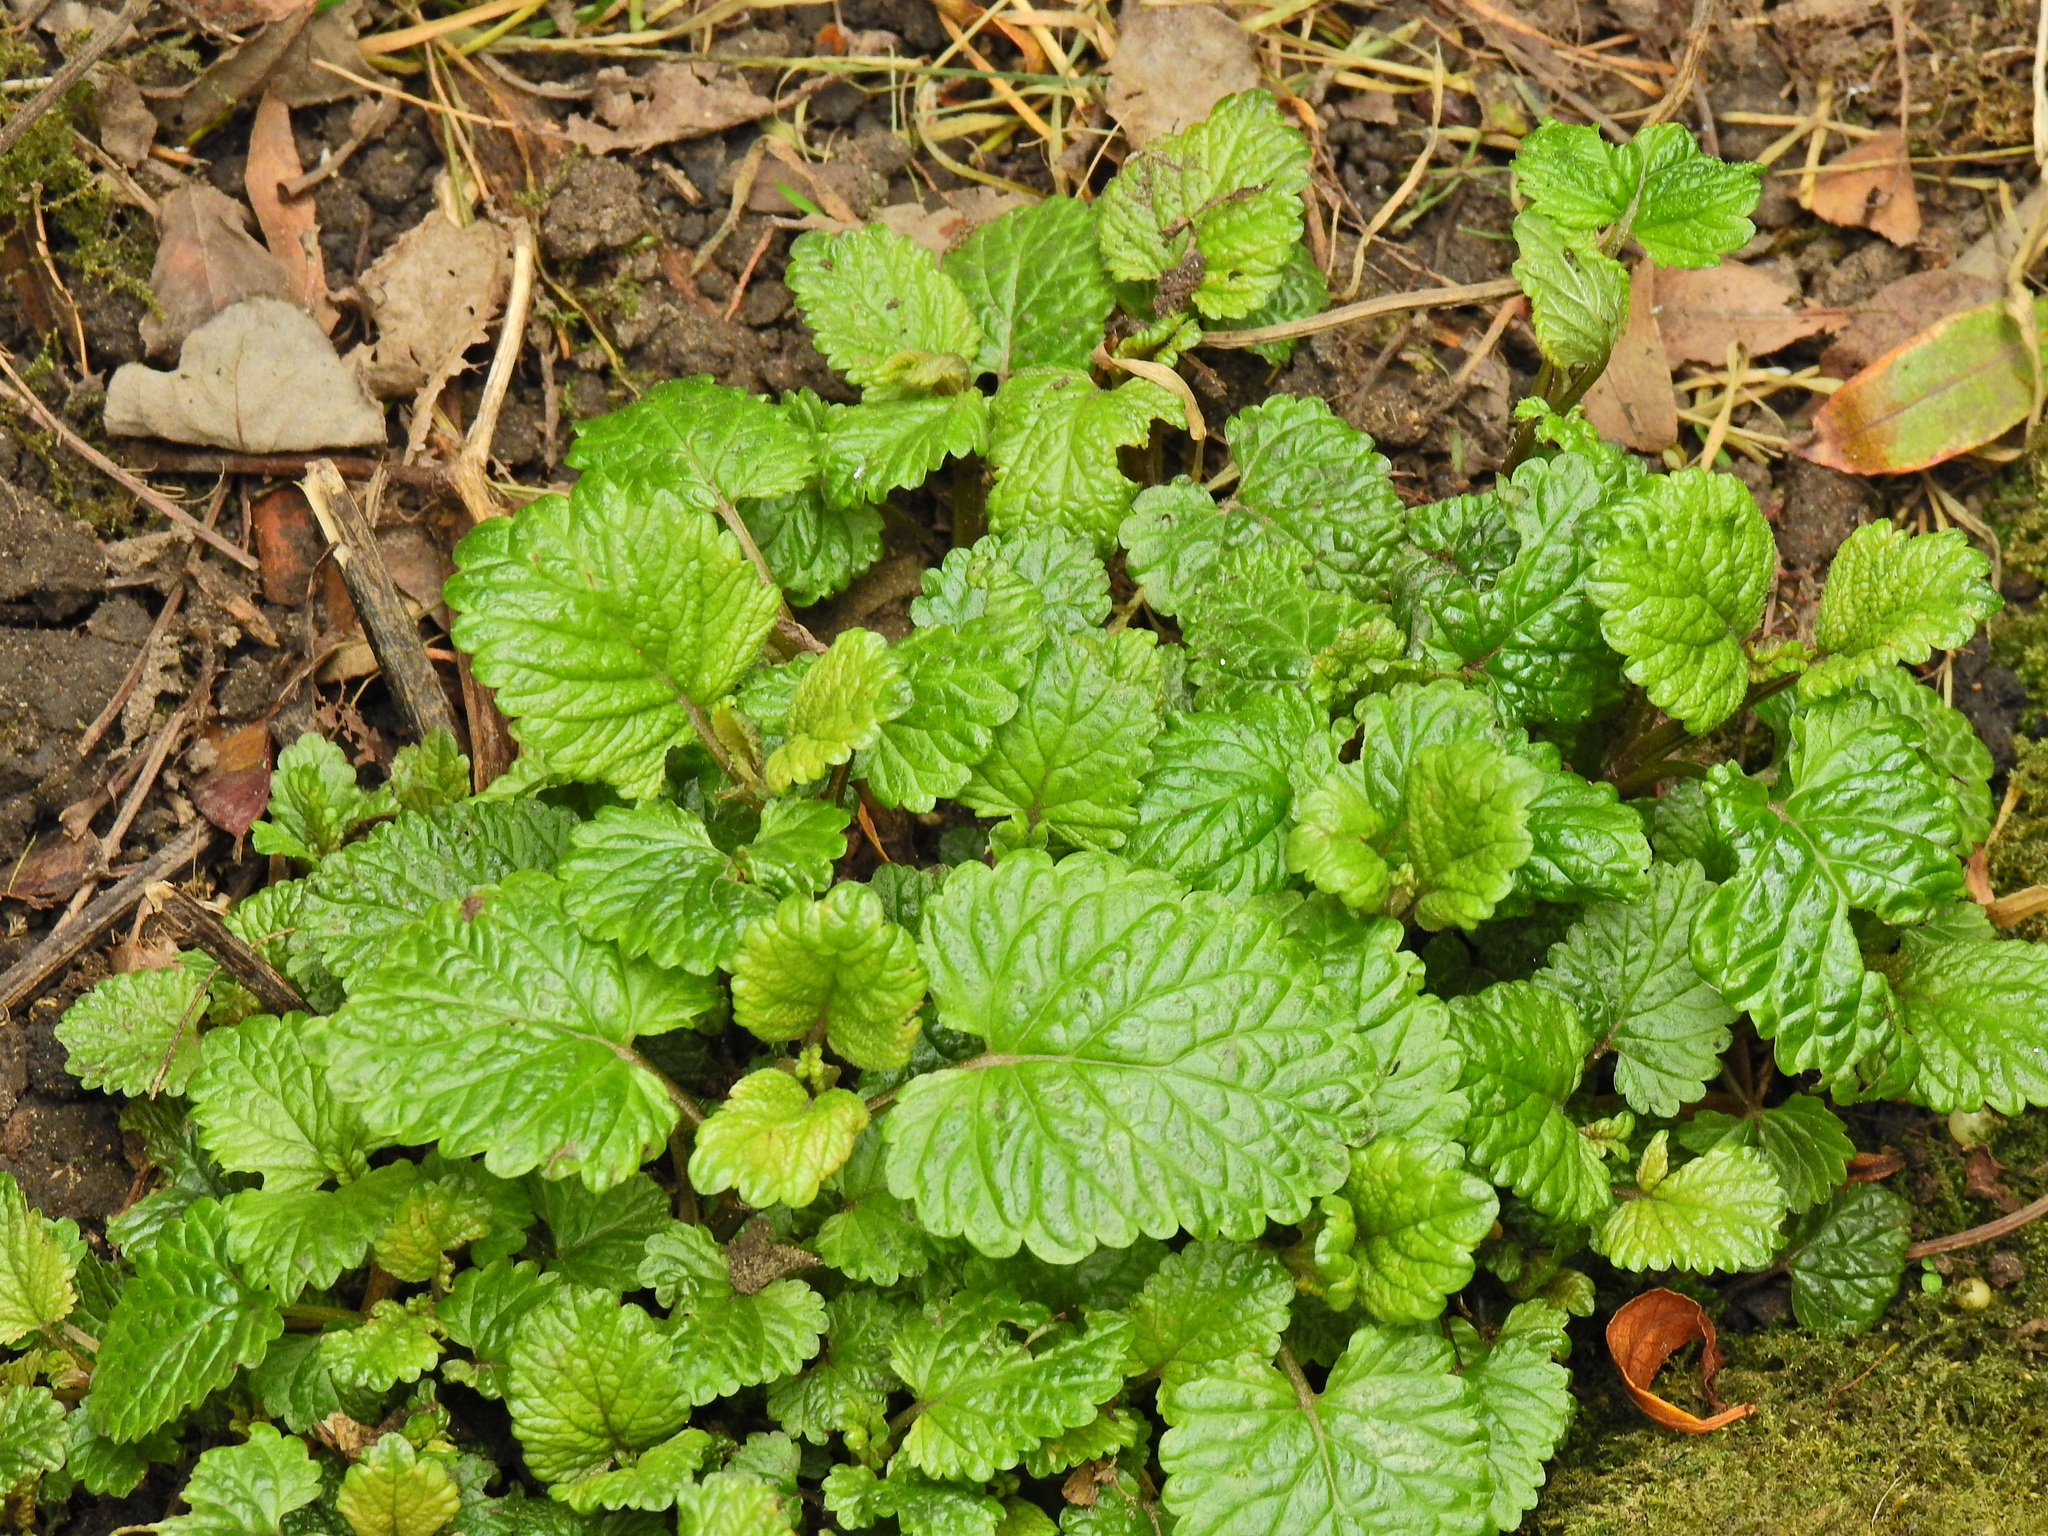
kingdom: Plantae
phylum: Tracheophyta
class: Magnoliopsida
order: Lamiales
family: Lamiaceae
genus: Melissa
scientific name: Melissa officinalis
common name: Balm
